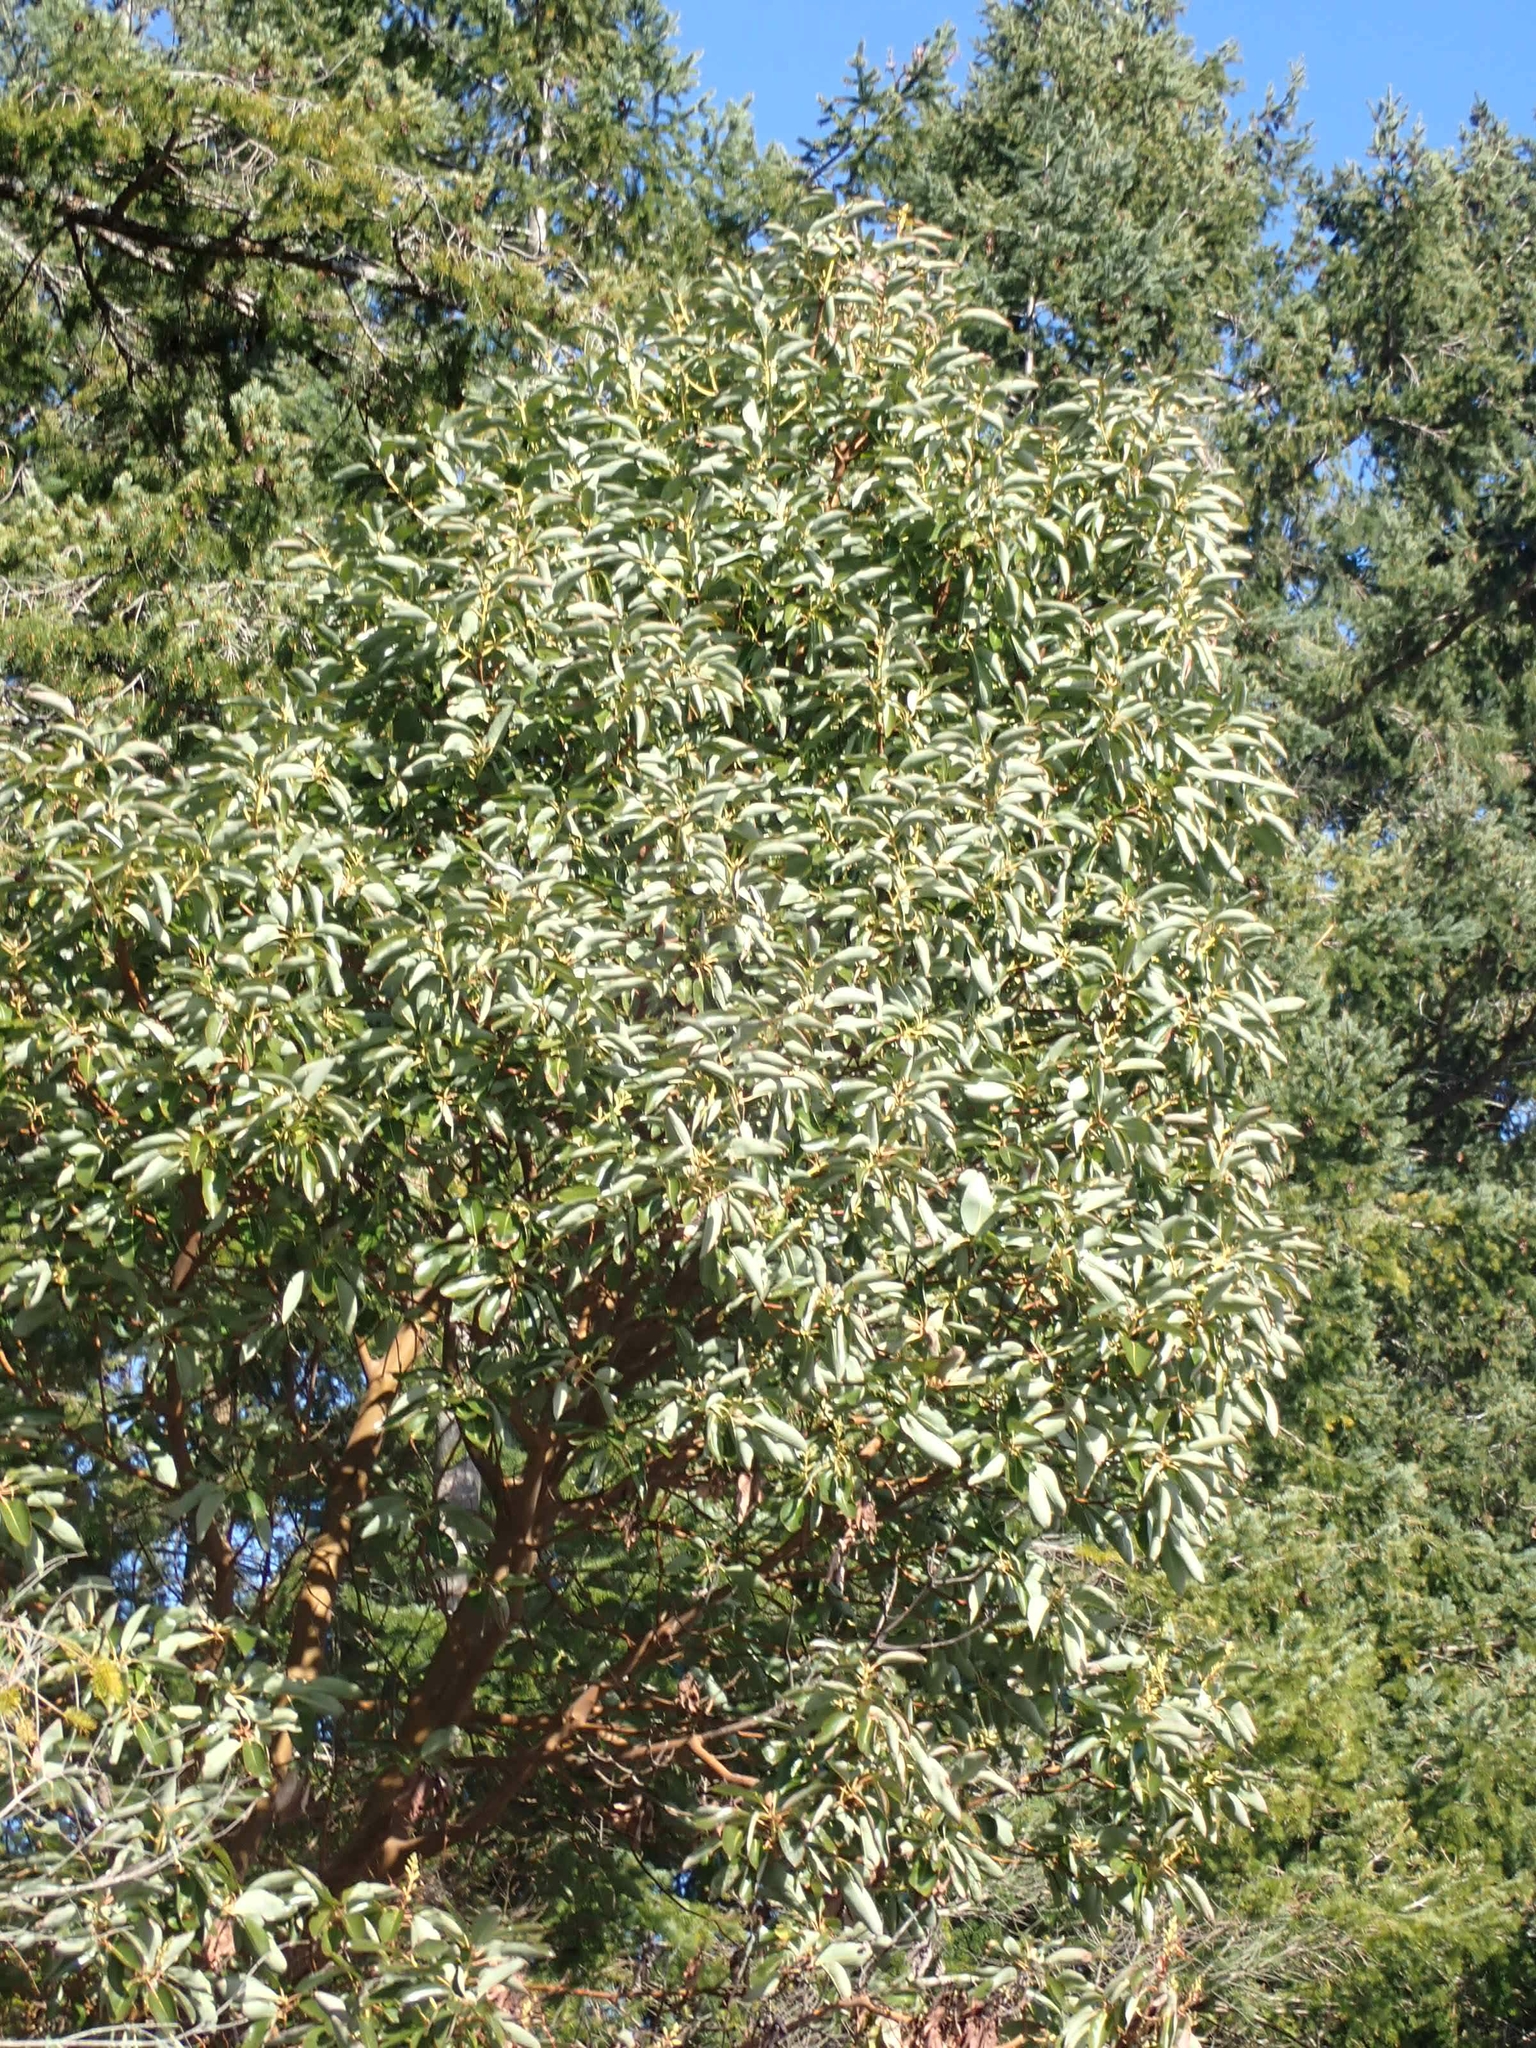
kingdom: Plantae
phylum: Tracheophyta
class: Magnoliopsida
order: Ericales
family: Ericaceae
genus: Arbutus
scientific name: Arbutus menziesii
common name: Pacific madrone
